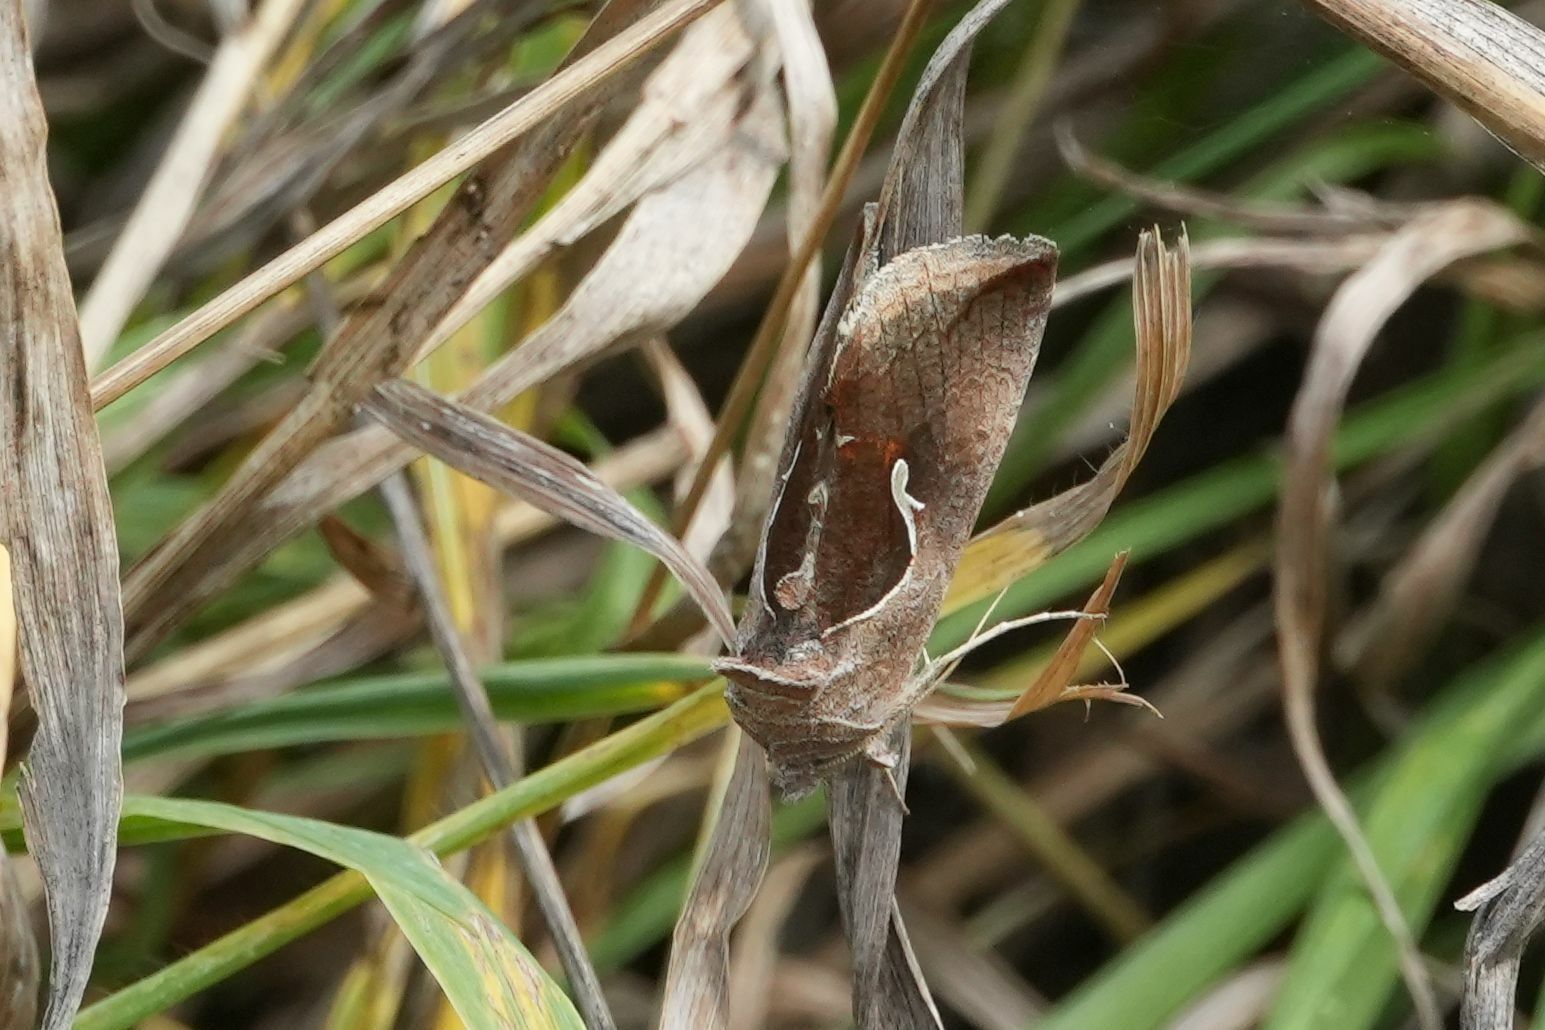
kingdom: Animalia
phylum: Arthropoda
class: Insecta
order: Lepidoptera
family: Noctuidae
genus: Anagrapha
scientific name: Anagrapha falcifera
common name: Celery looper
